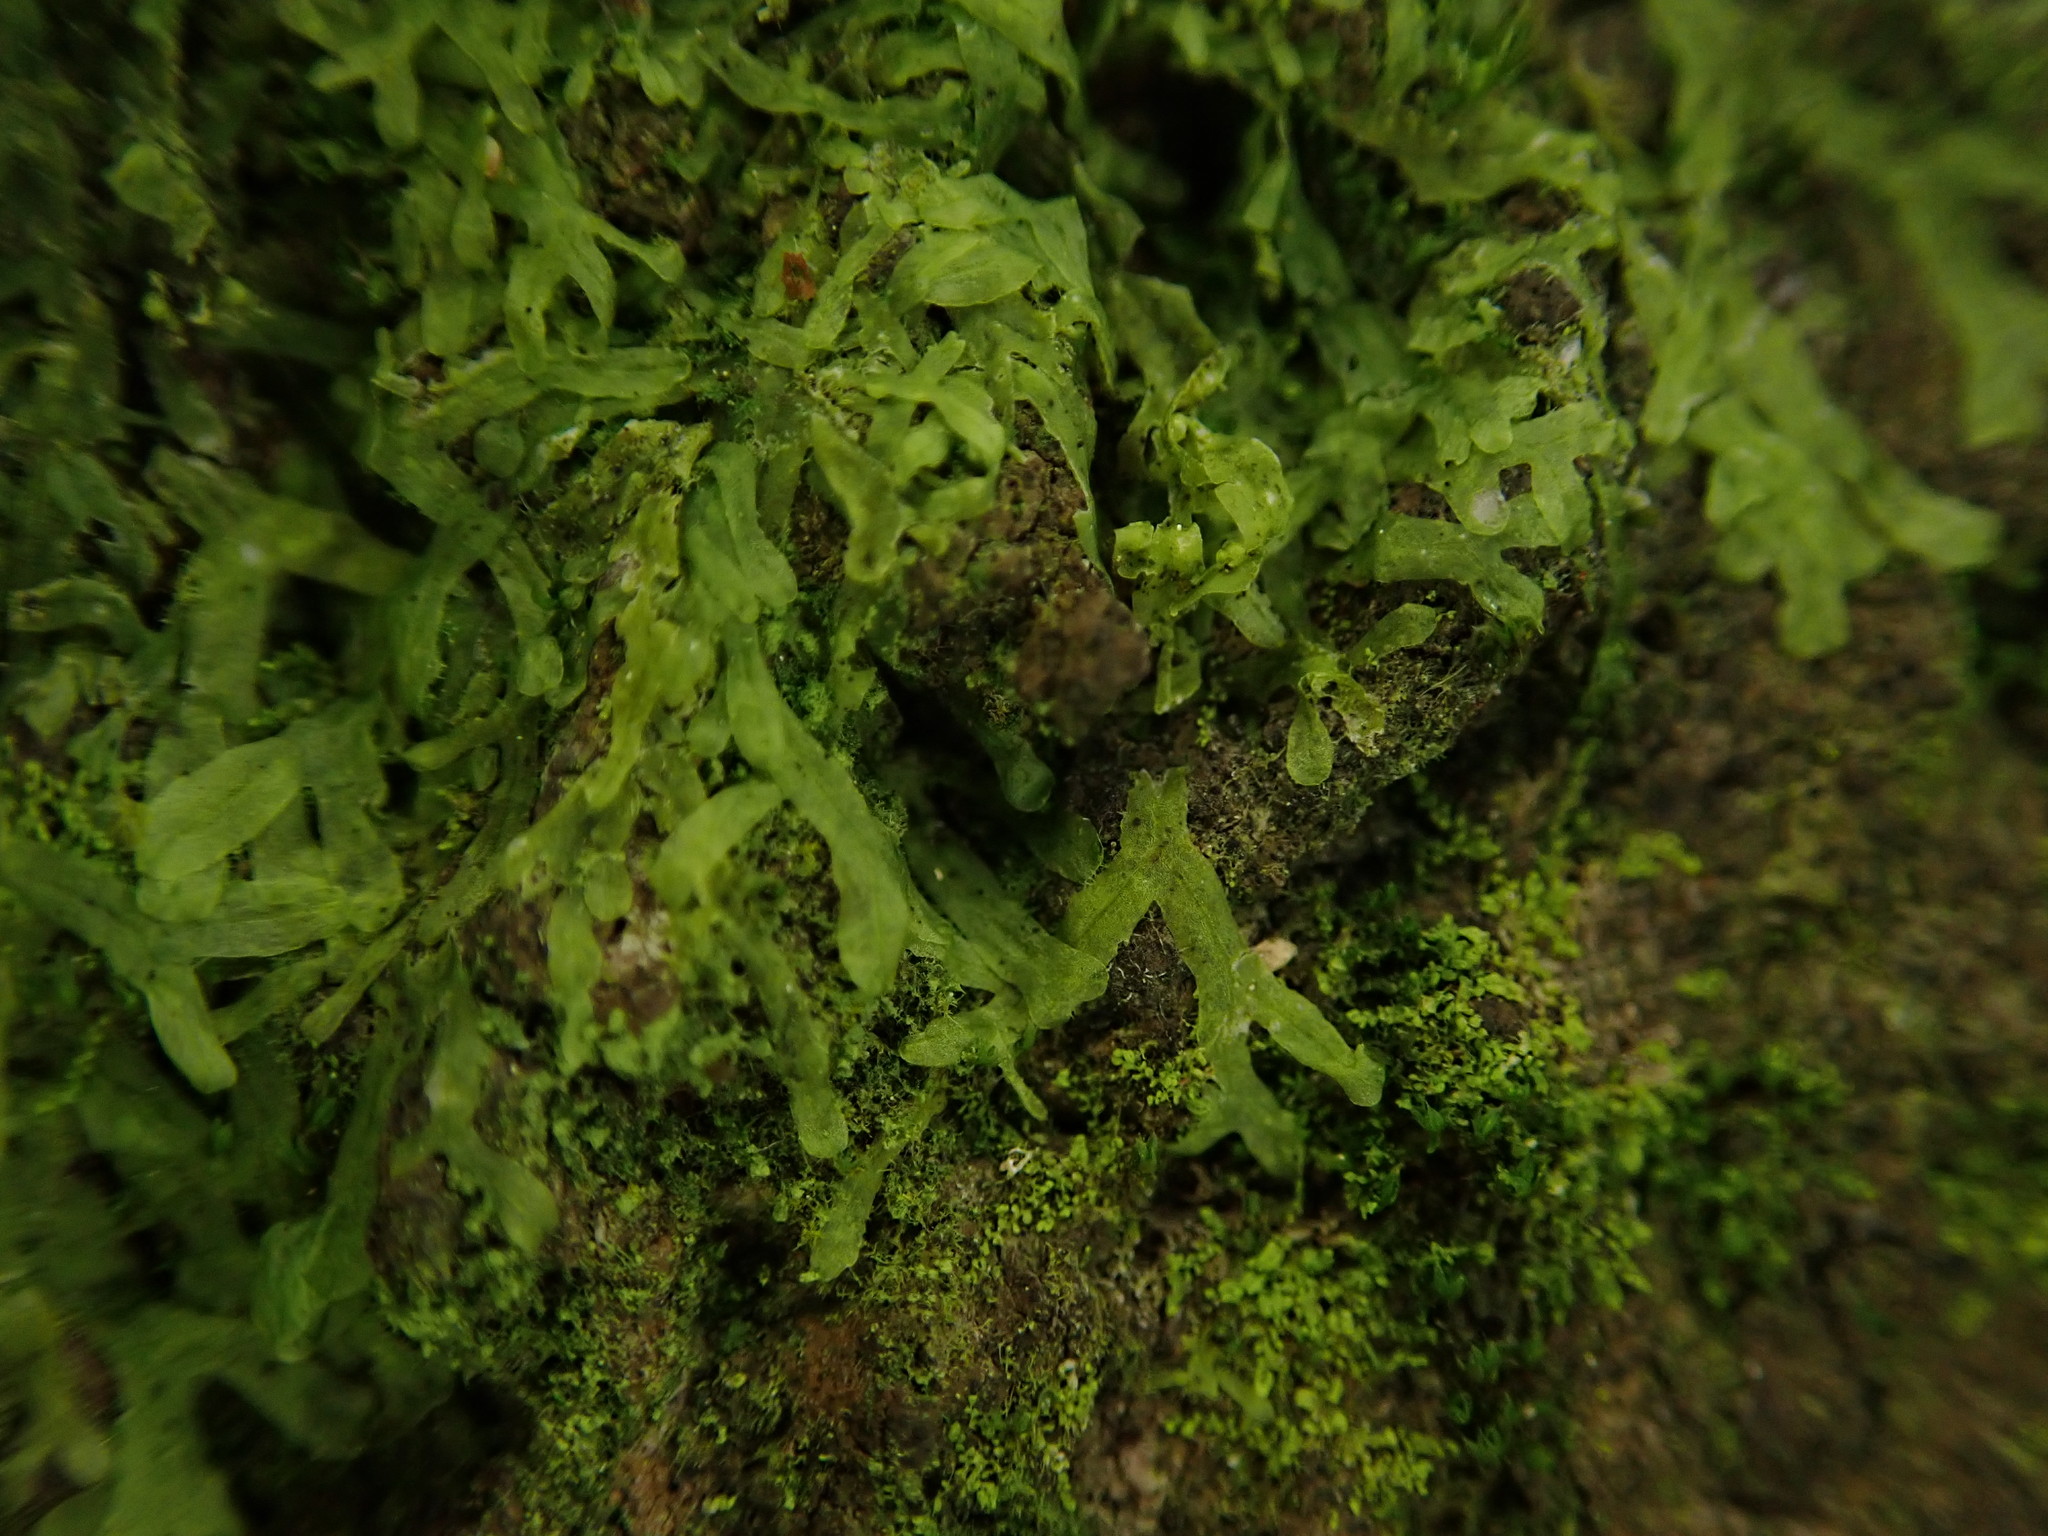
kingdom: Plantae
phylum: Marchantiophyta
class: Jungermanniopsida
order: Metzgeriales
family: Metzgeriaceae
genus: Metzgeria
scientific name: Metzgeria furcata
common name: Forked veilwort
